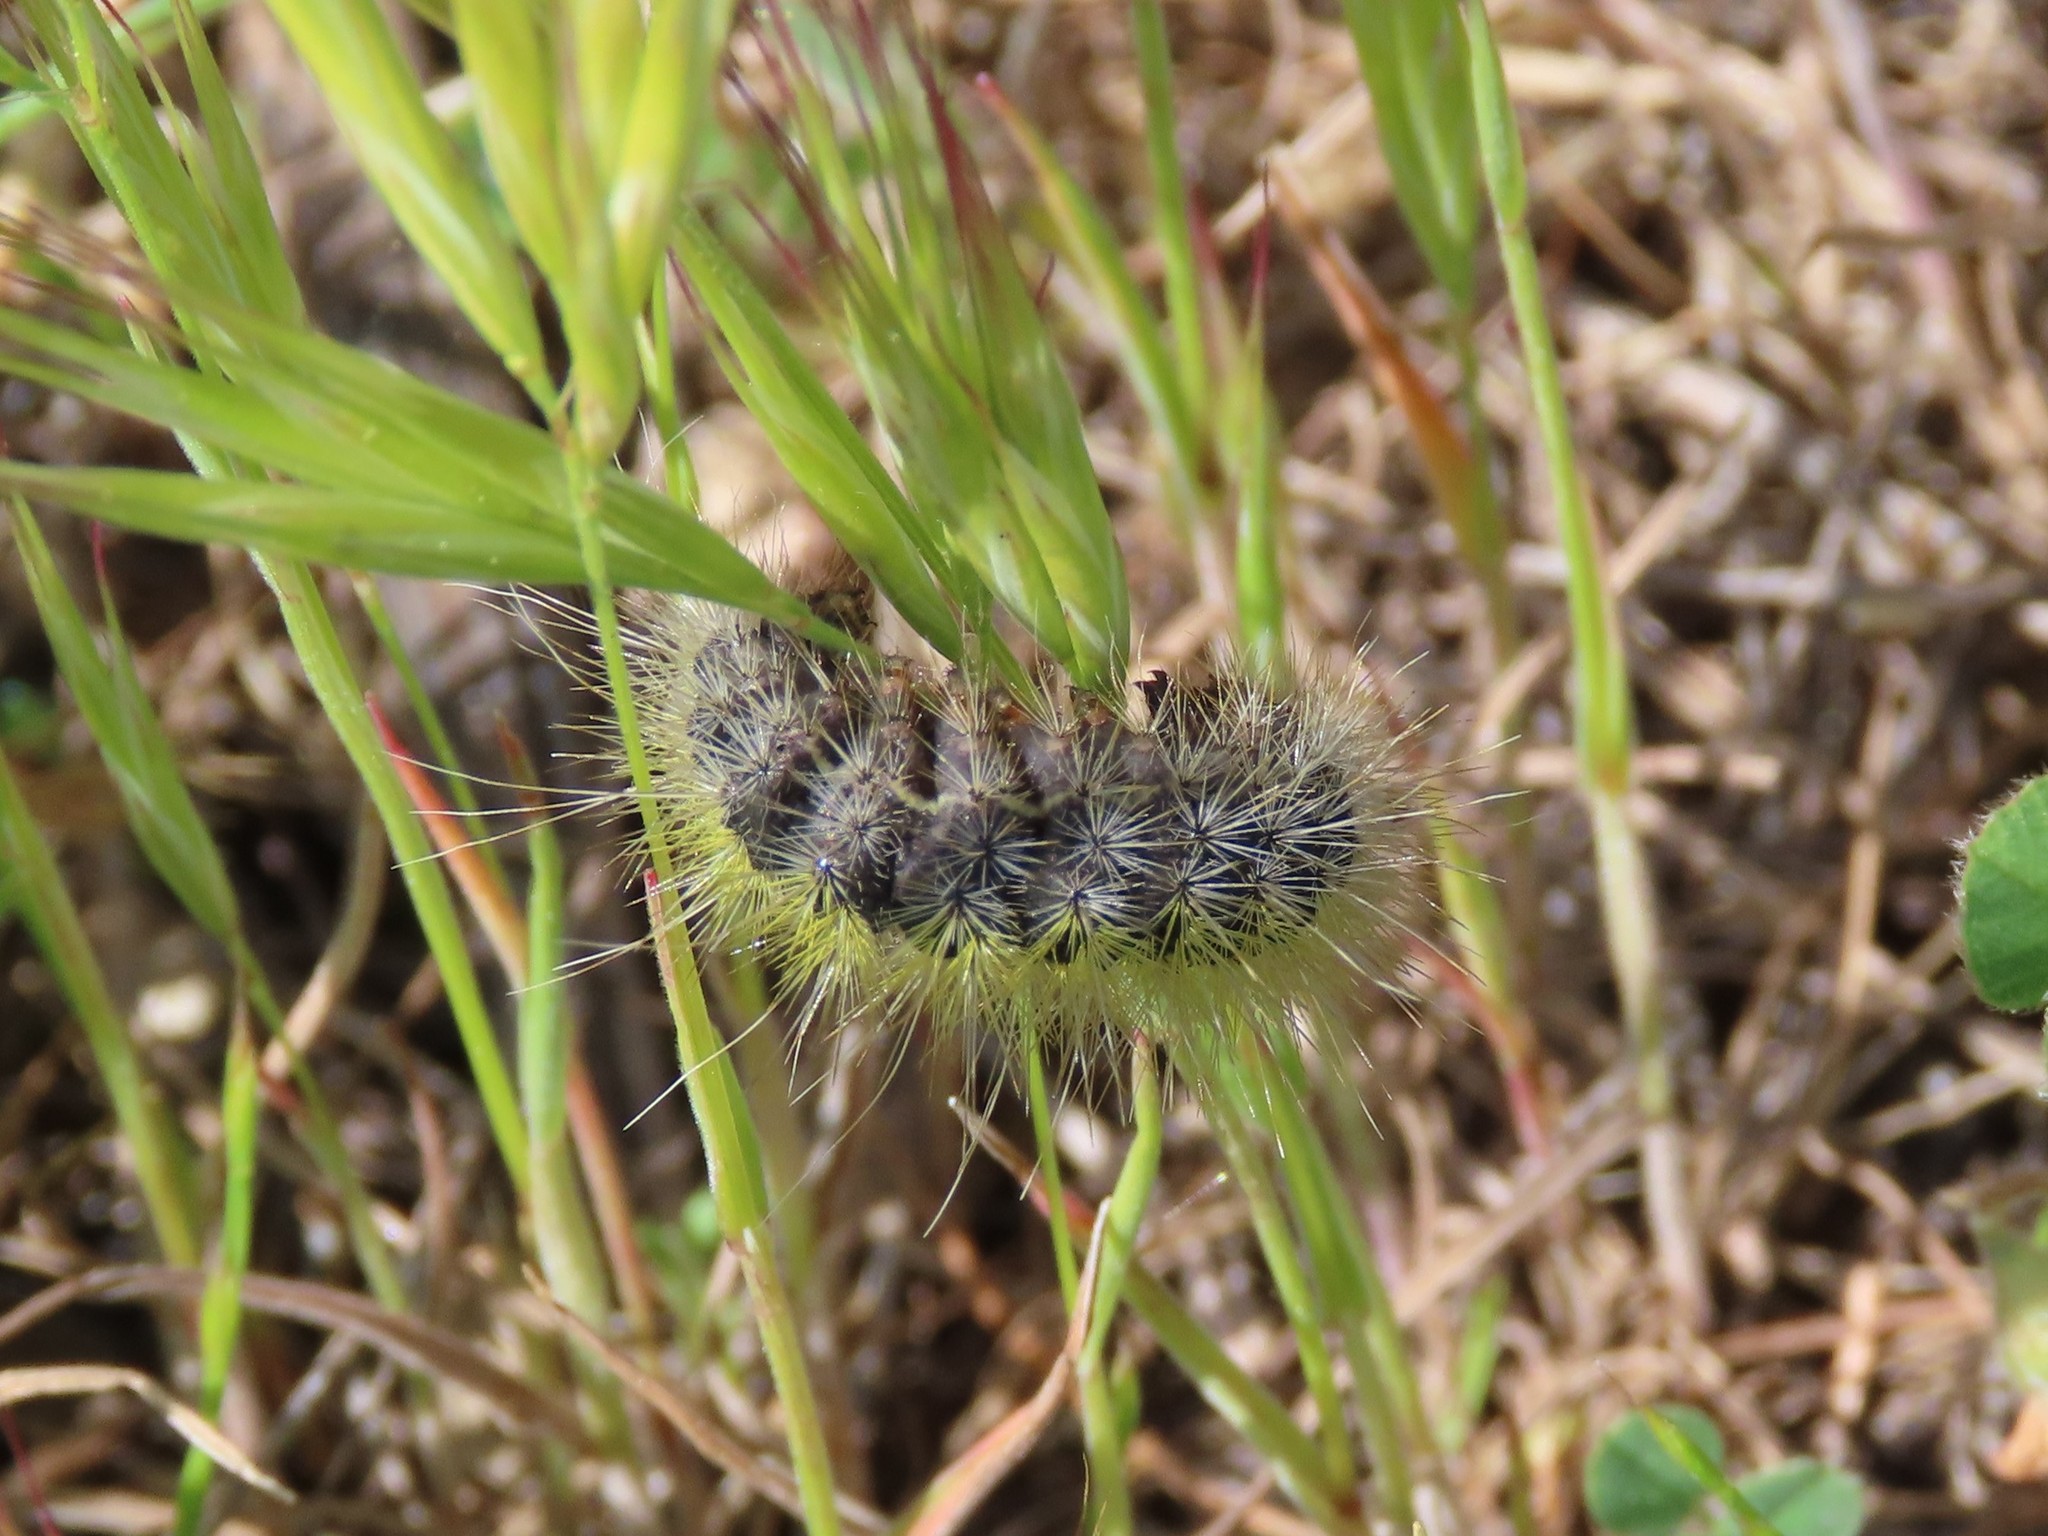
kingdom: Animalia
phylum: Arthropoda
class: Insecta
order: Lepidoptera
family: Notodontidae
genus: Thaumetopoea
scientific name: Thaumetopoea herculeana
